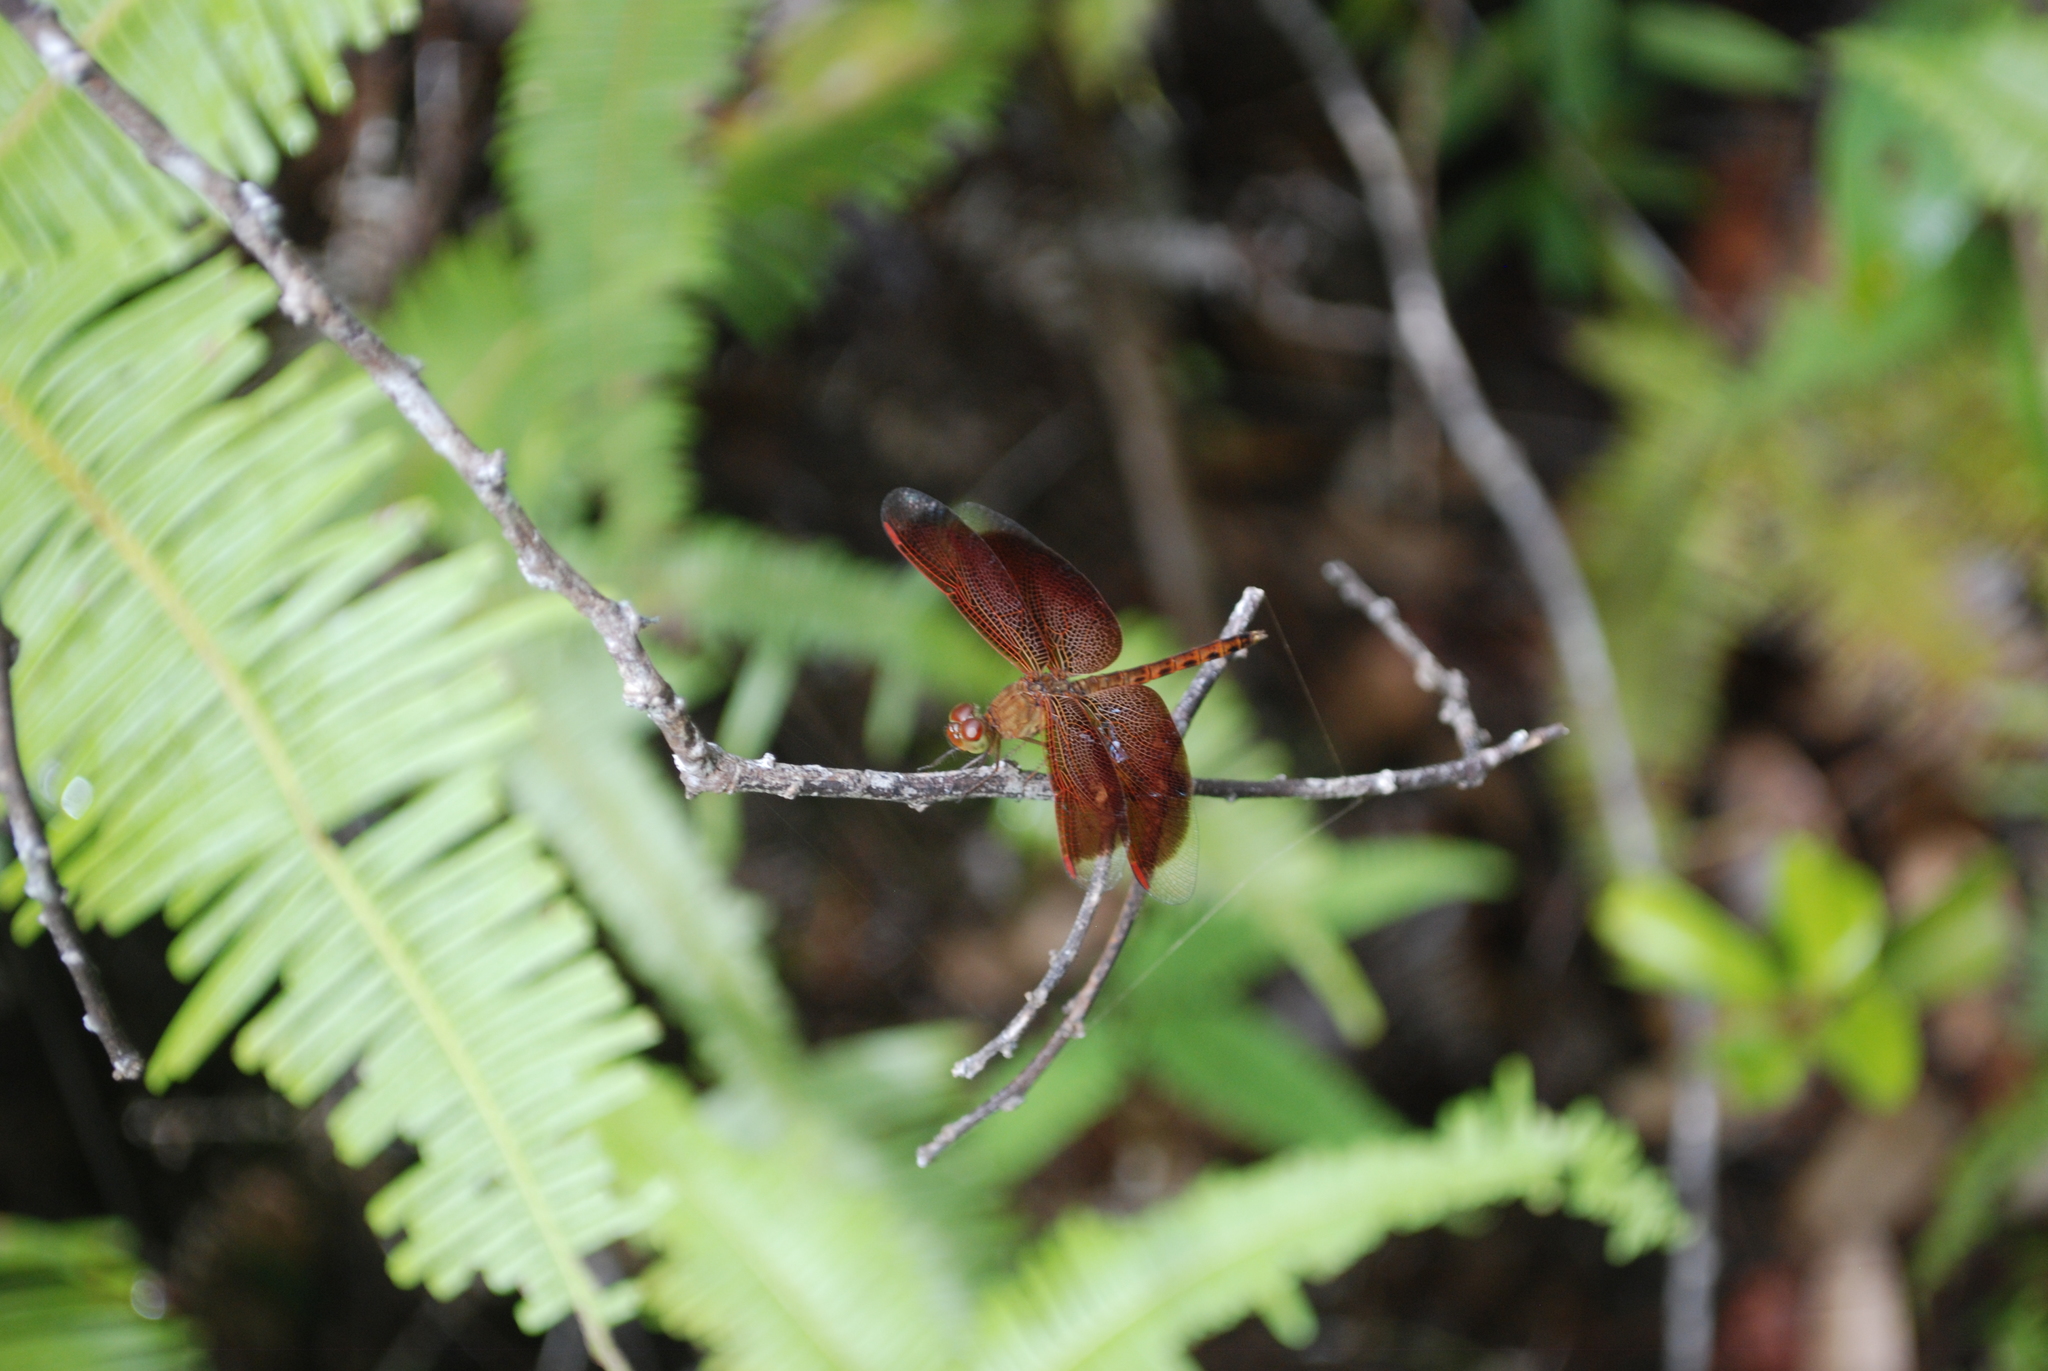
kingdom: Animalia
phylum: Arthropoda
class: Insecta
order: Odonata
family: Libellulidae
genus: Neurothemis
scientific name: Neurothemis fluctuans
